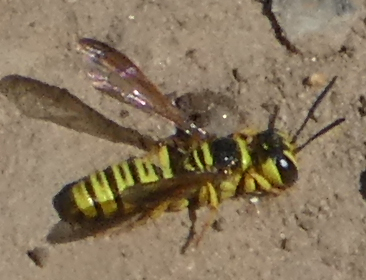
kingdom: Animalia
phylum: Arthropoda
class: Insecta
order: Hymenoptera
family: Crabronidae
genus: Eucerceris
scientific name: Eucerceris provancheri
